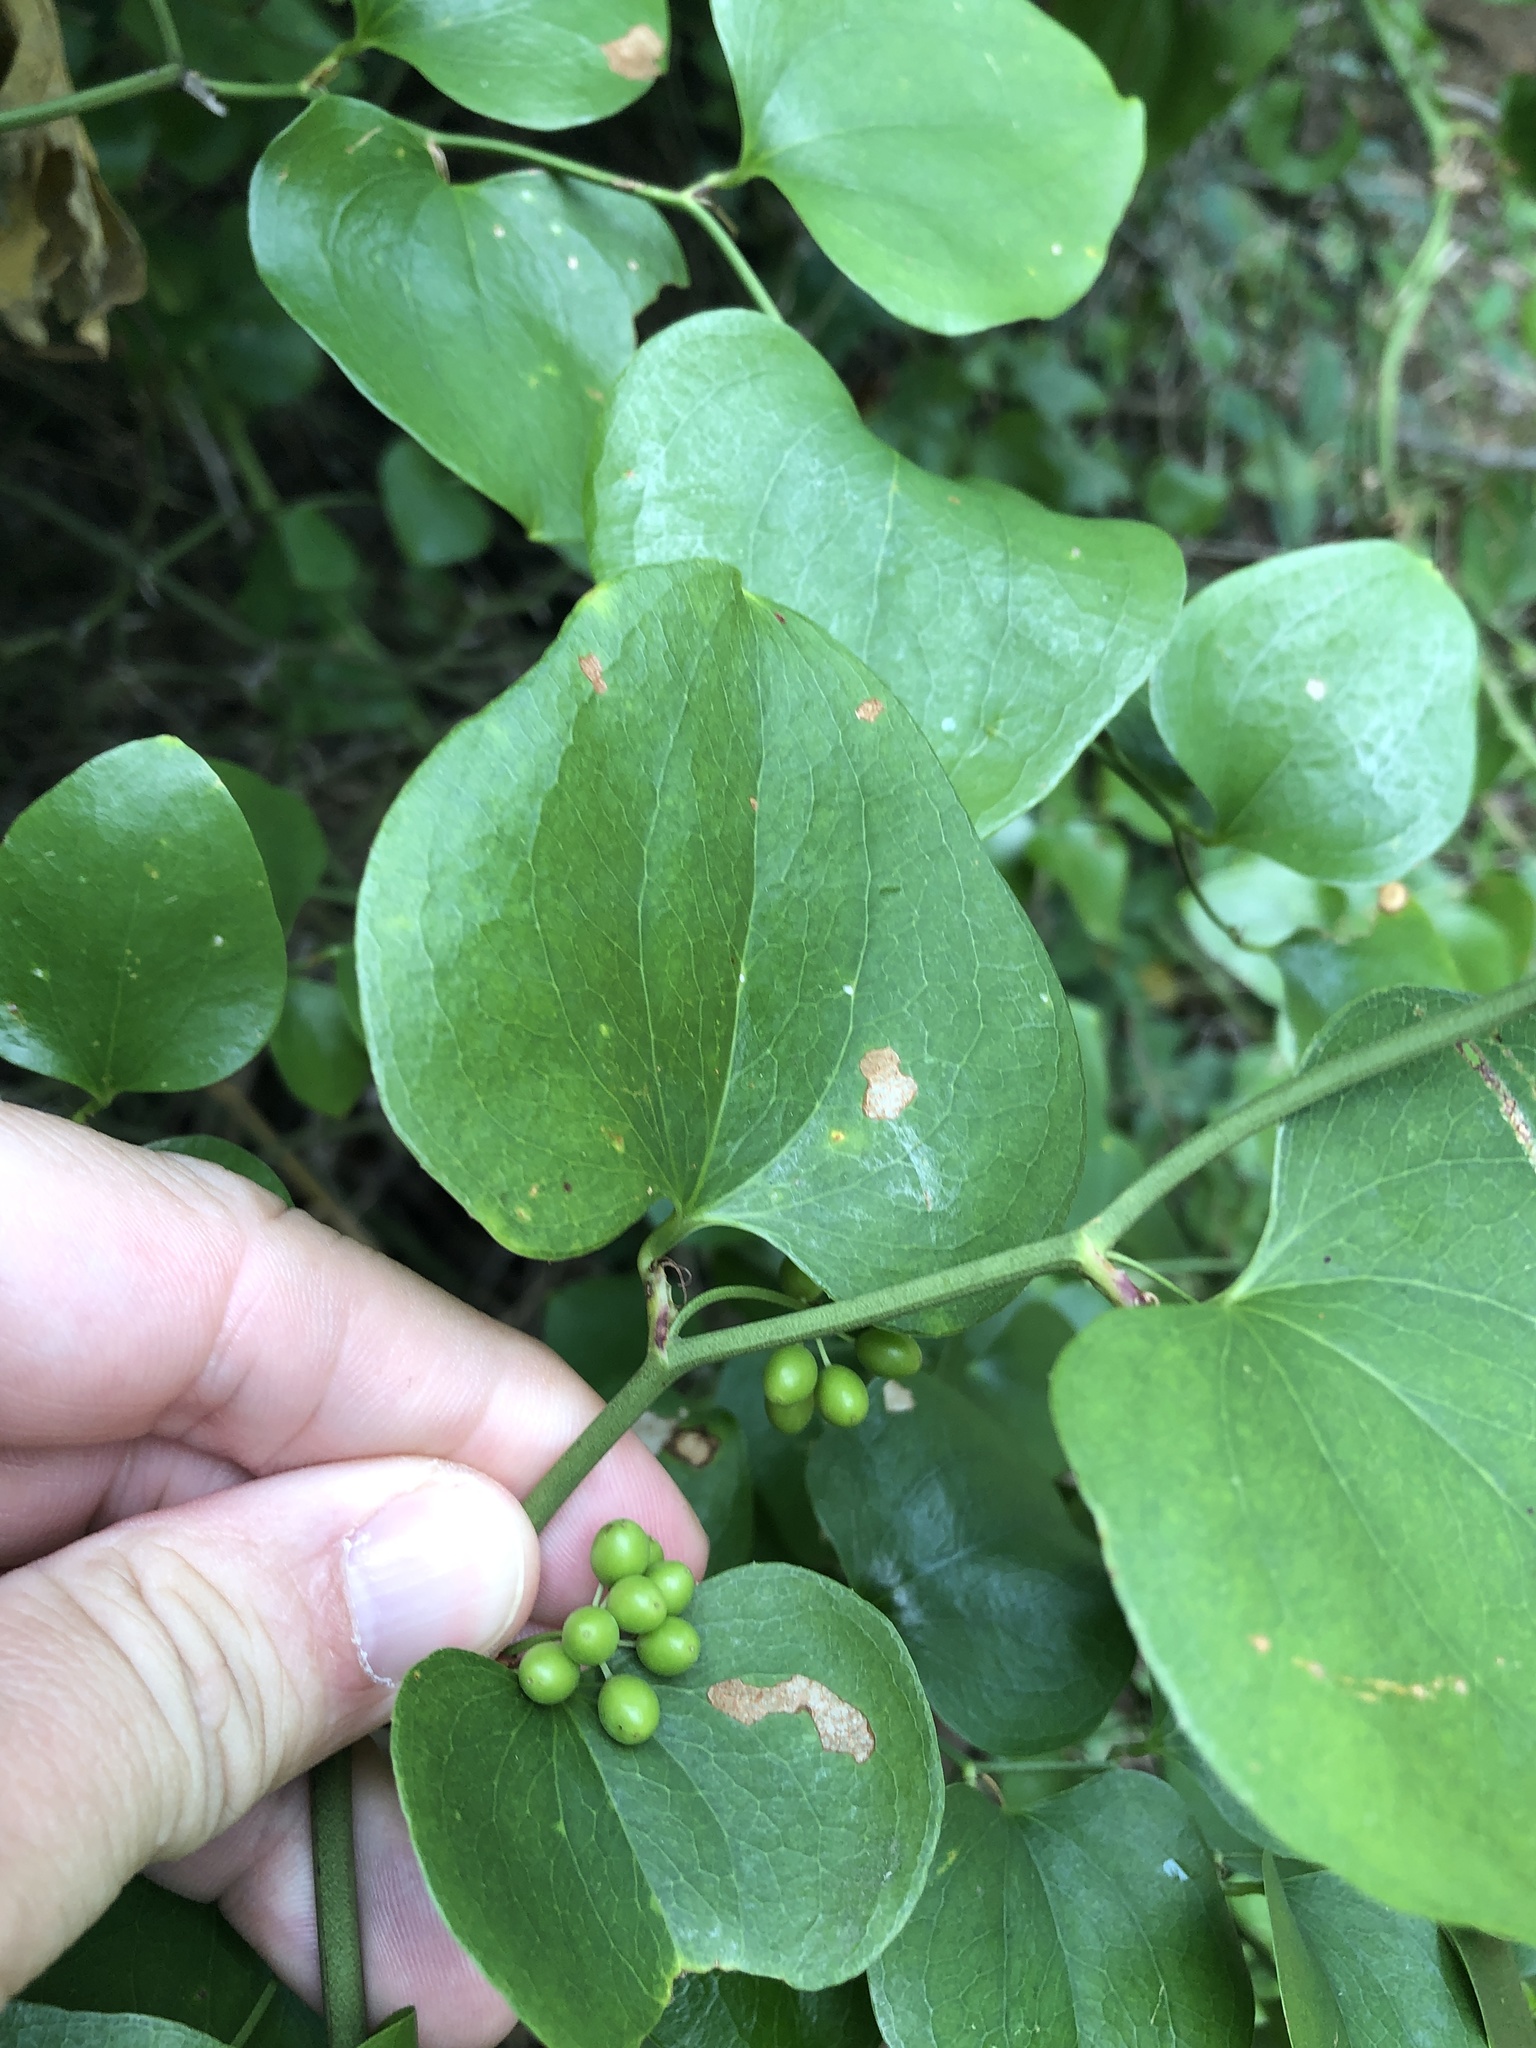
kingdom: Plantae
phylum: Tracheophyta
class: Liliopsida
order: Liliales
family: Smilacaceae
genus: Smilax
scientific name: Smilax bona-nox
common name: Catbrier
